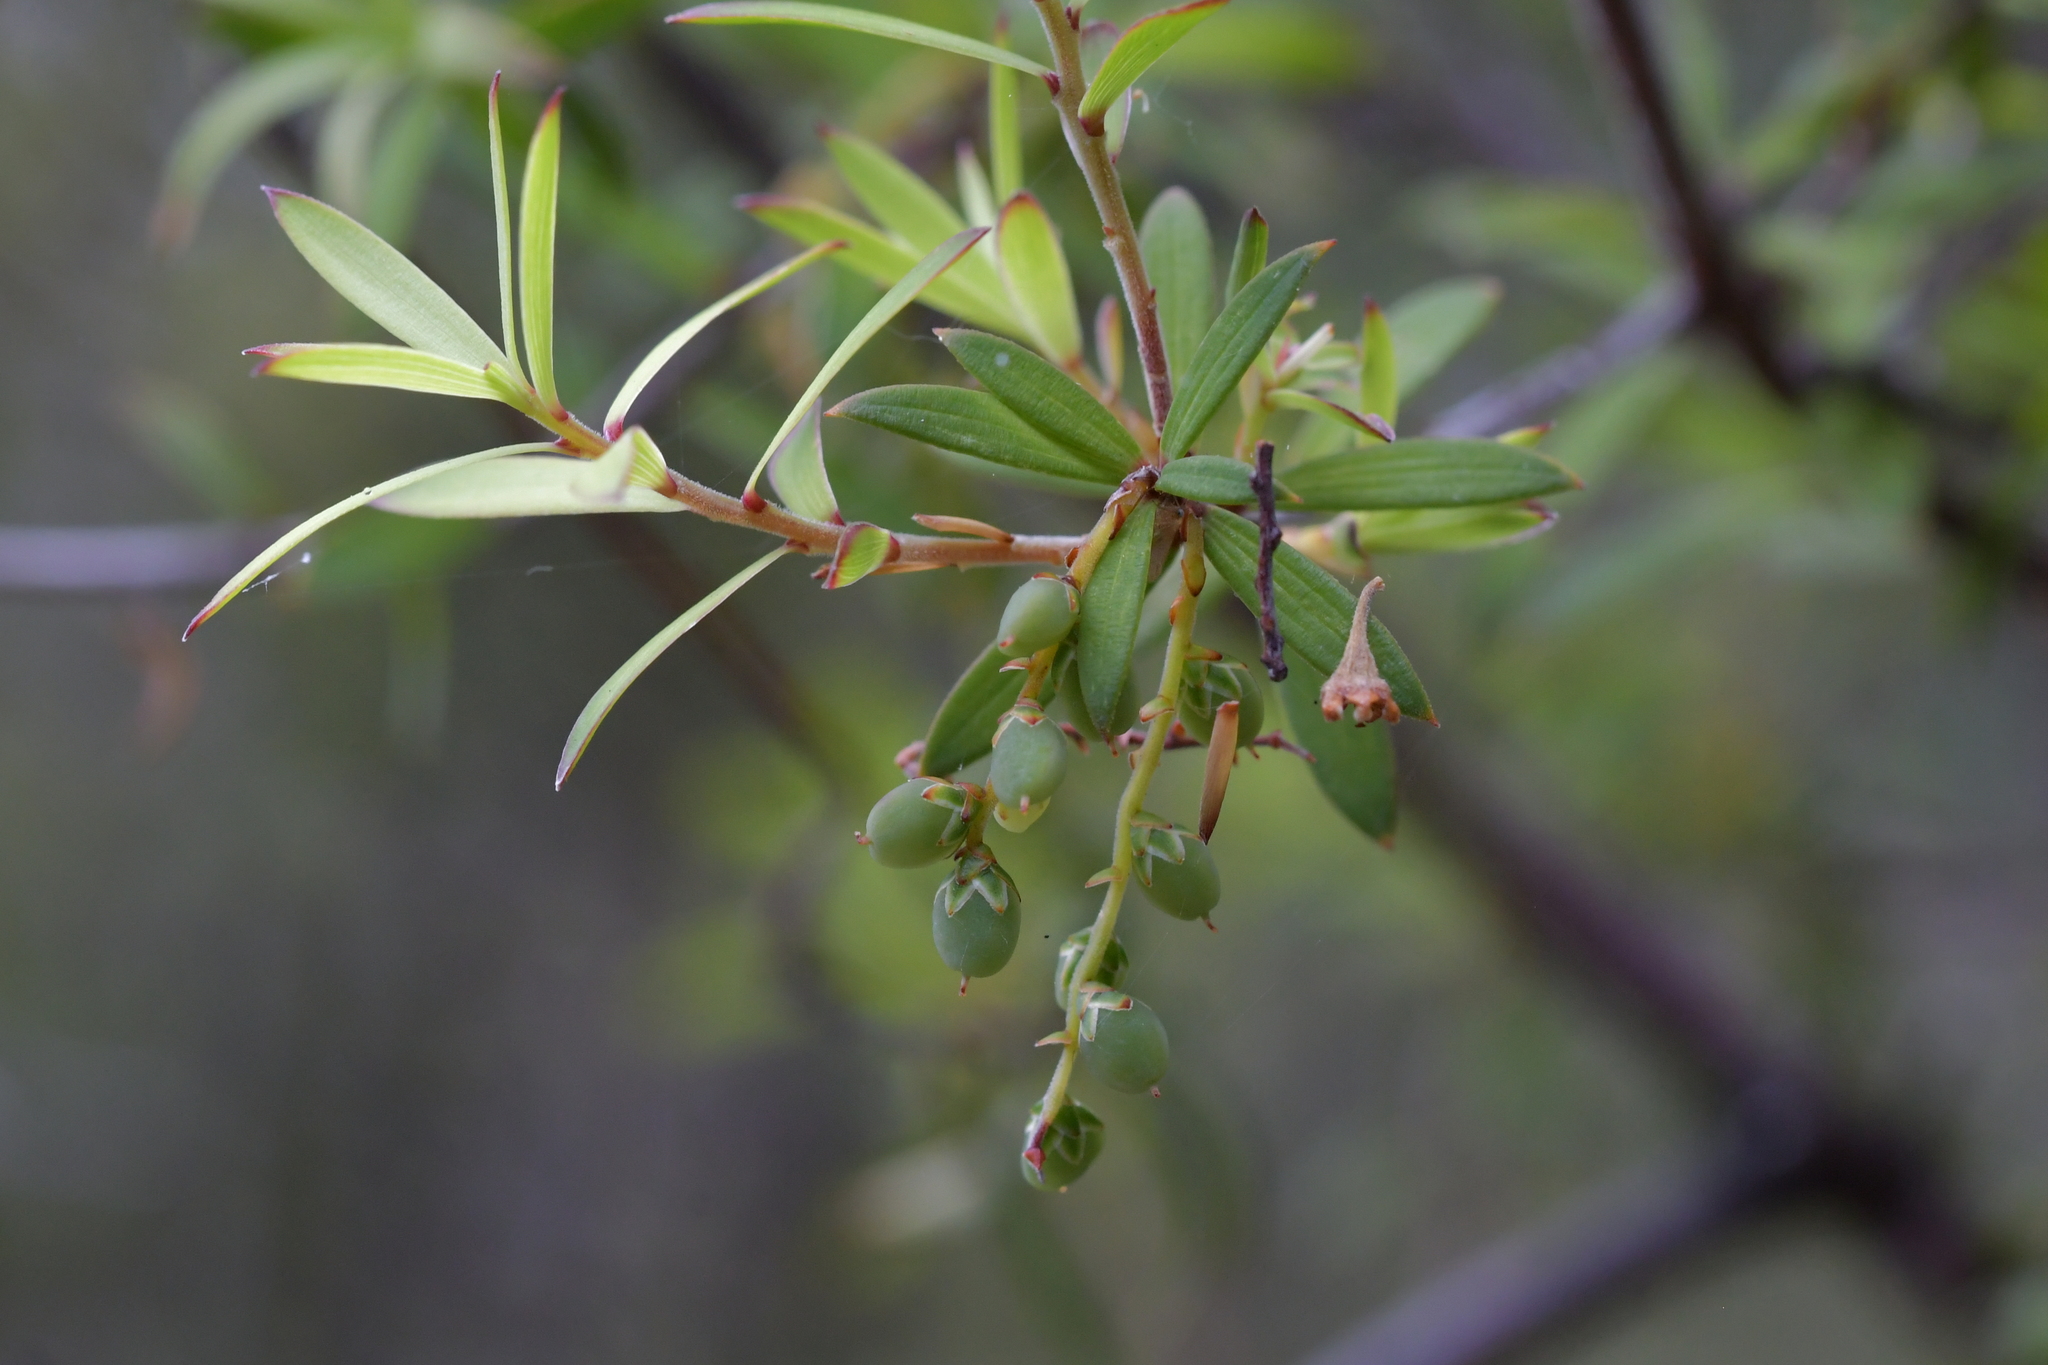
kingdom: Plantae
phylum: Tracheophyta
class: Magnoliopsida
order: Ericales
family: Ericaceae
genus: Leucopogon
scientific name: Leucopogon fasciculatus
